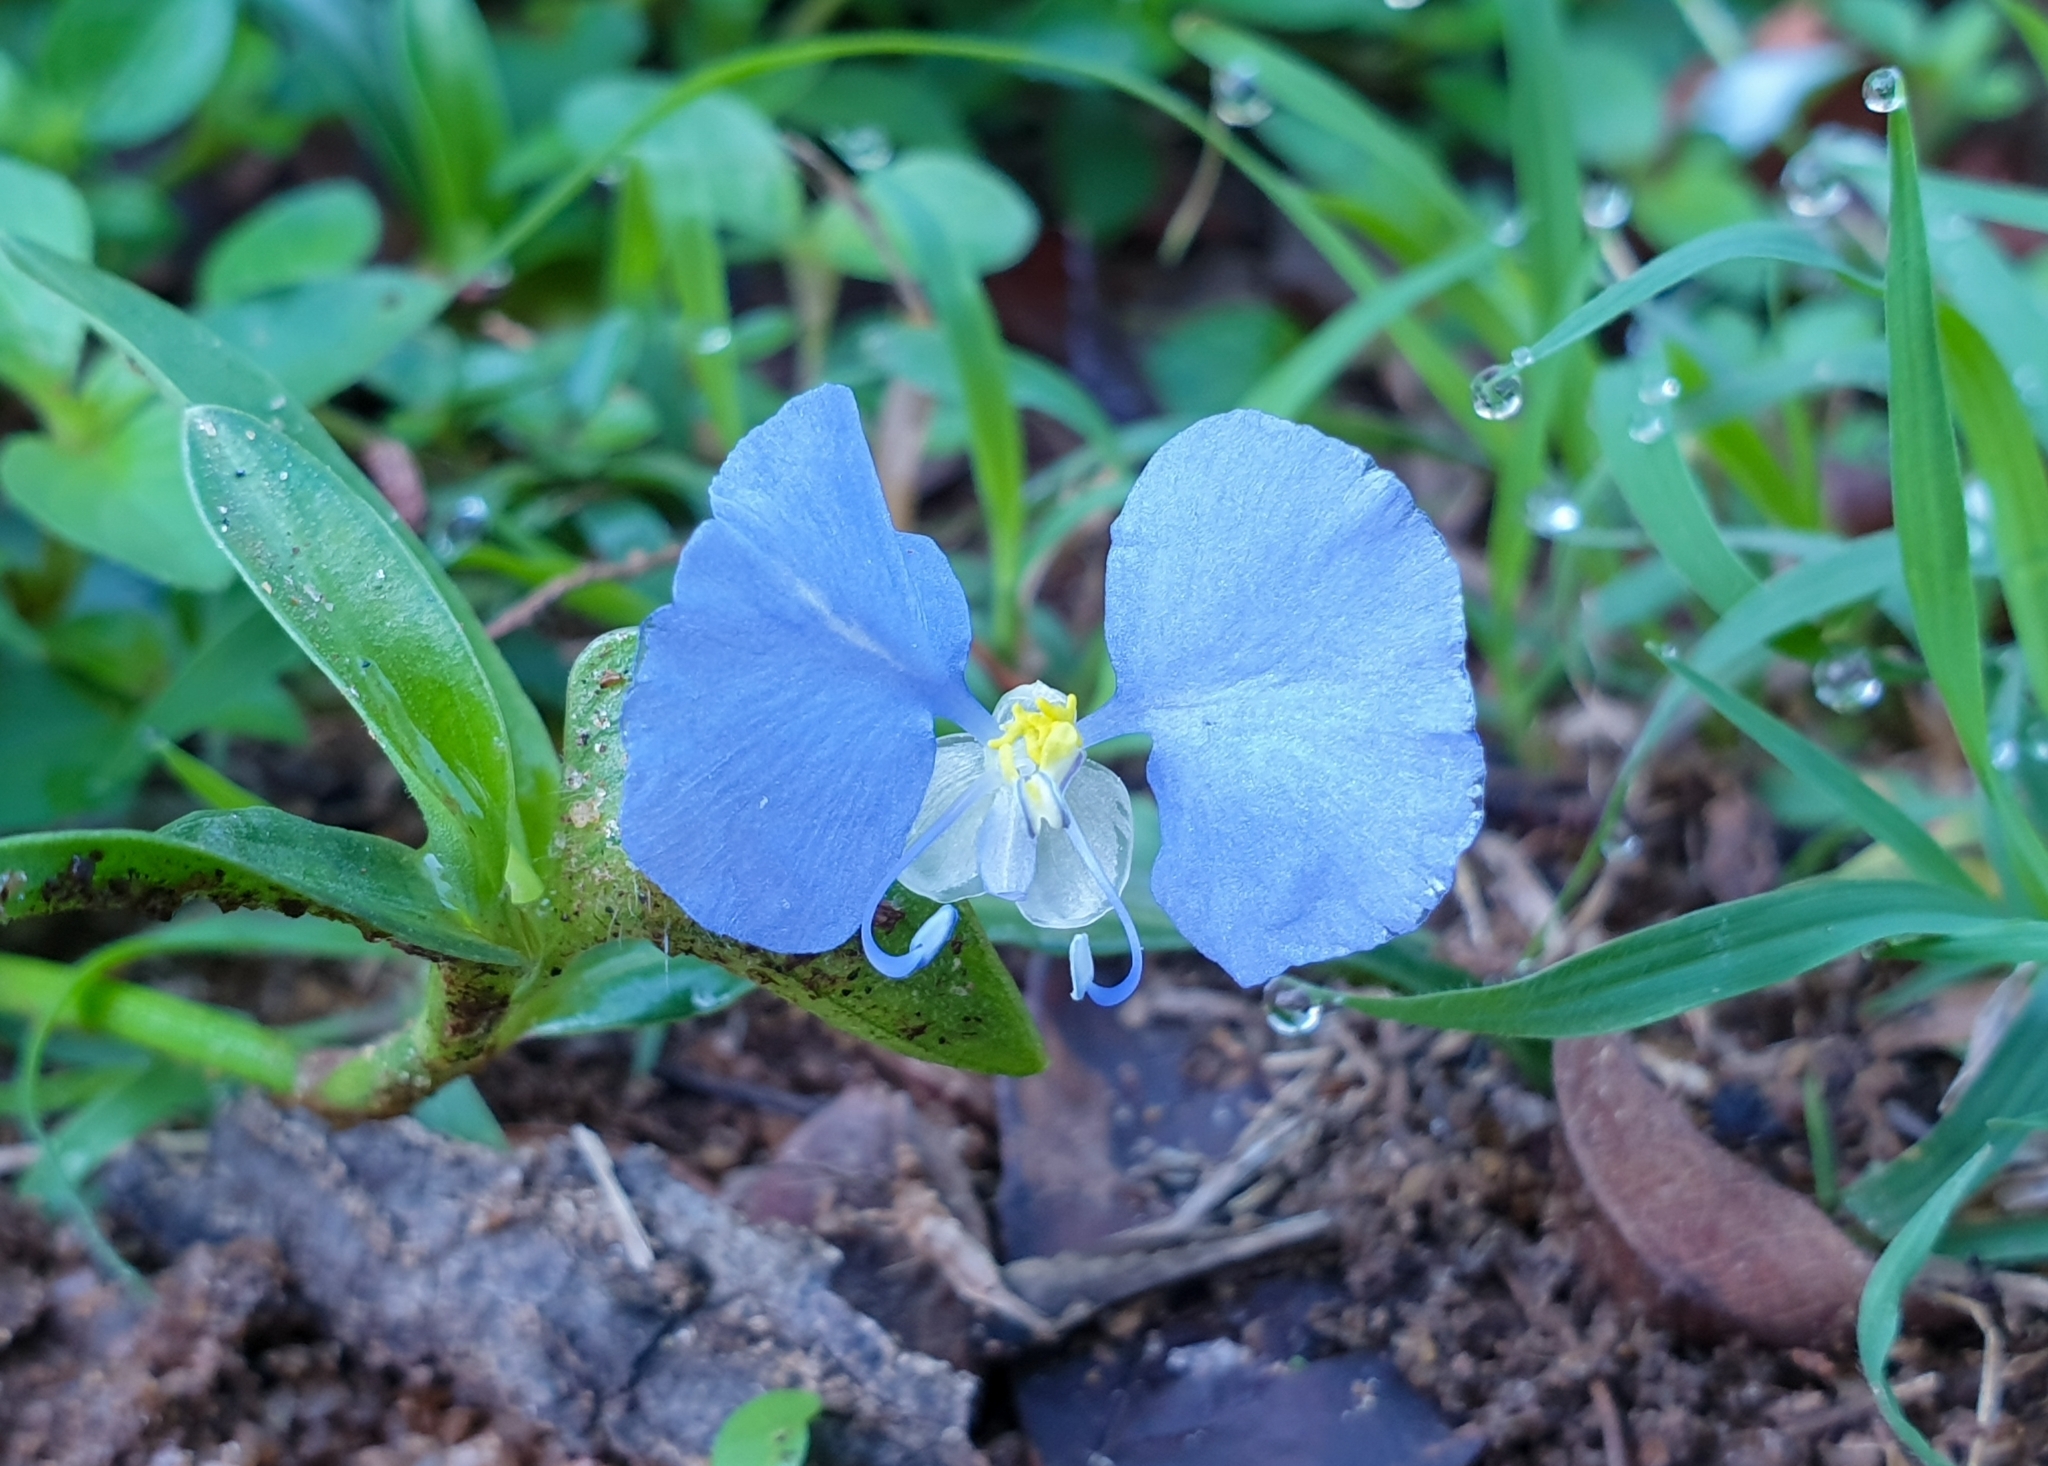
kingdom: Plantae
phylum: Tracheophyta
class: Liliopsida
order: Commelinales
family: Commelinaceae
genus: Commelina
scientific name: Commelina ensifolia
